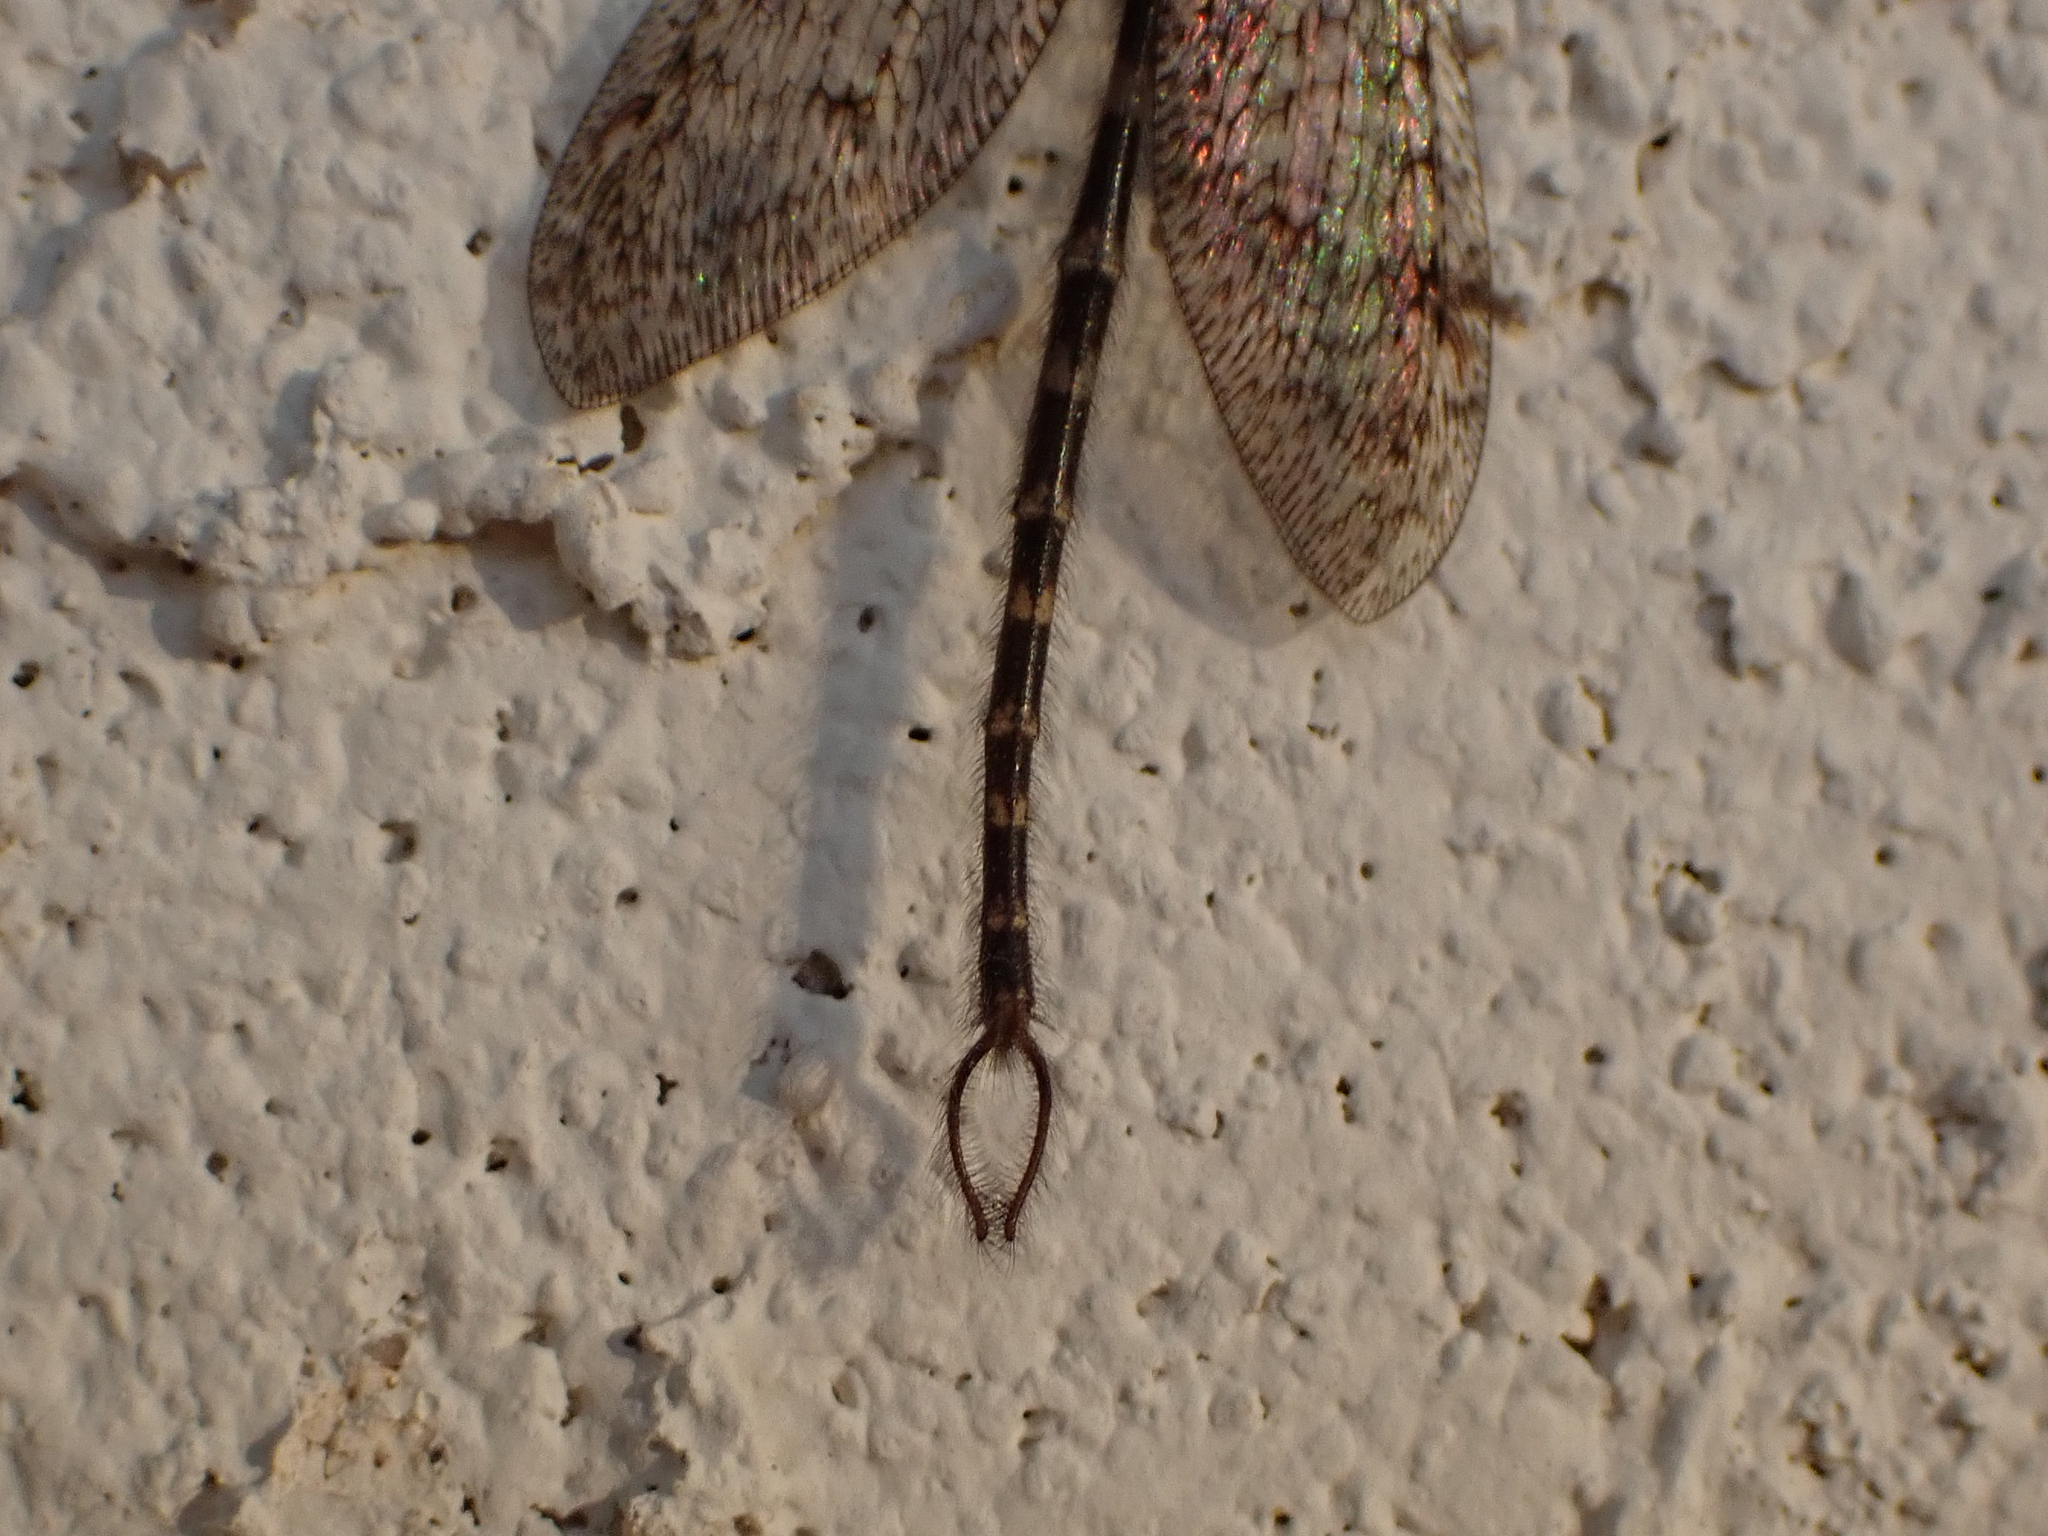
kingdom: Animalia
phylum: Arthropoda
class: Insecta
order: Neuroptera
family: Myrmeleontidae
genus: Brachynemurus
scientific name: Brachynemurus sackeni
